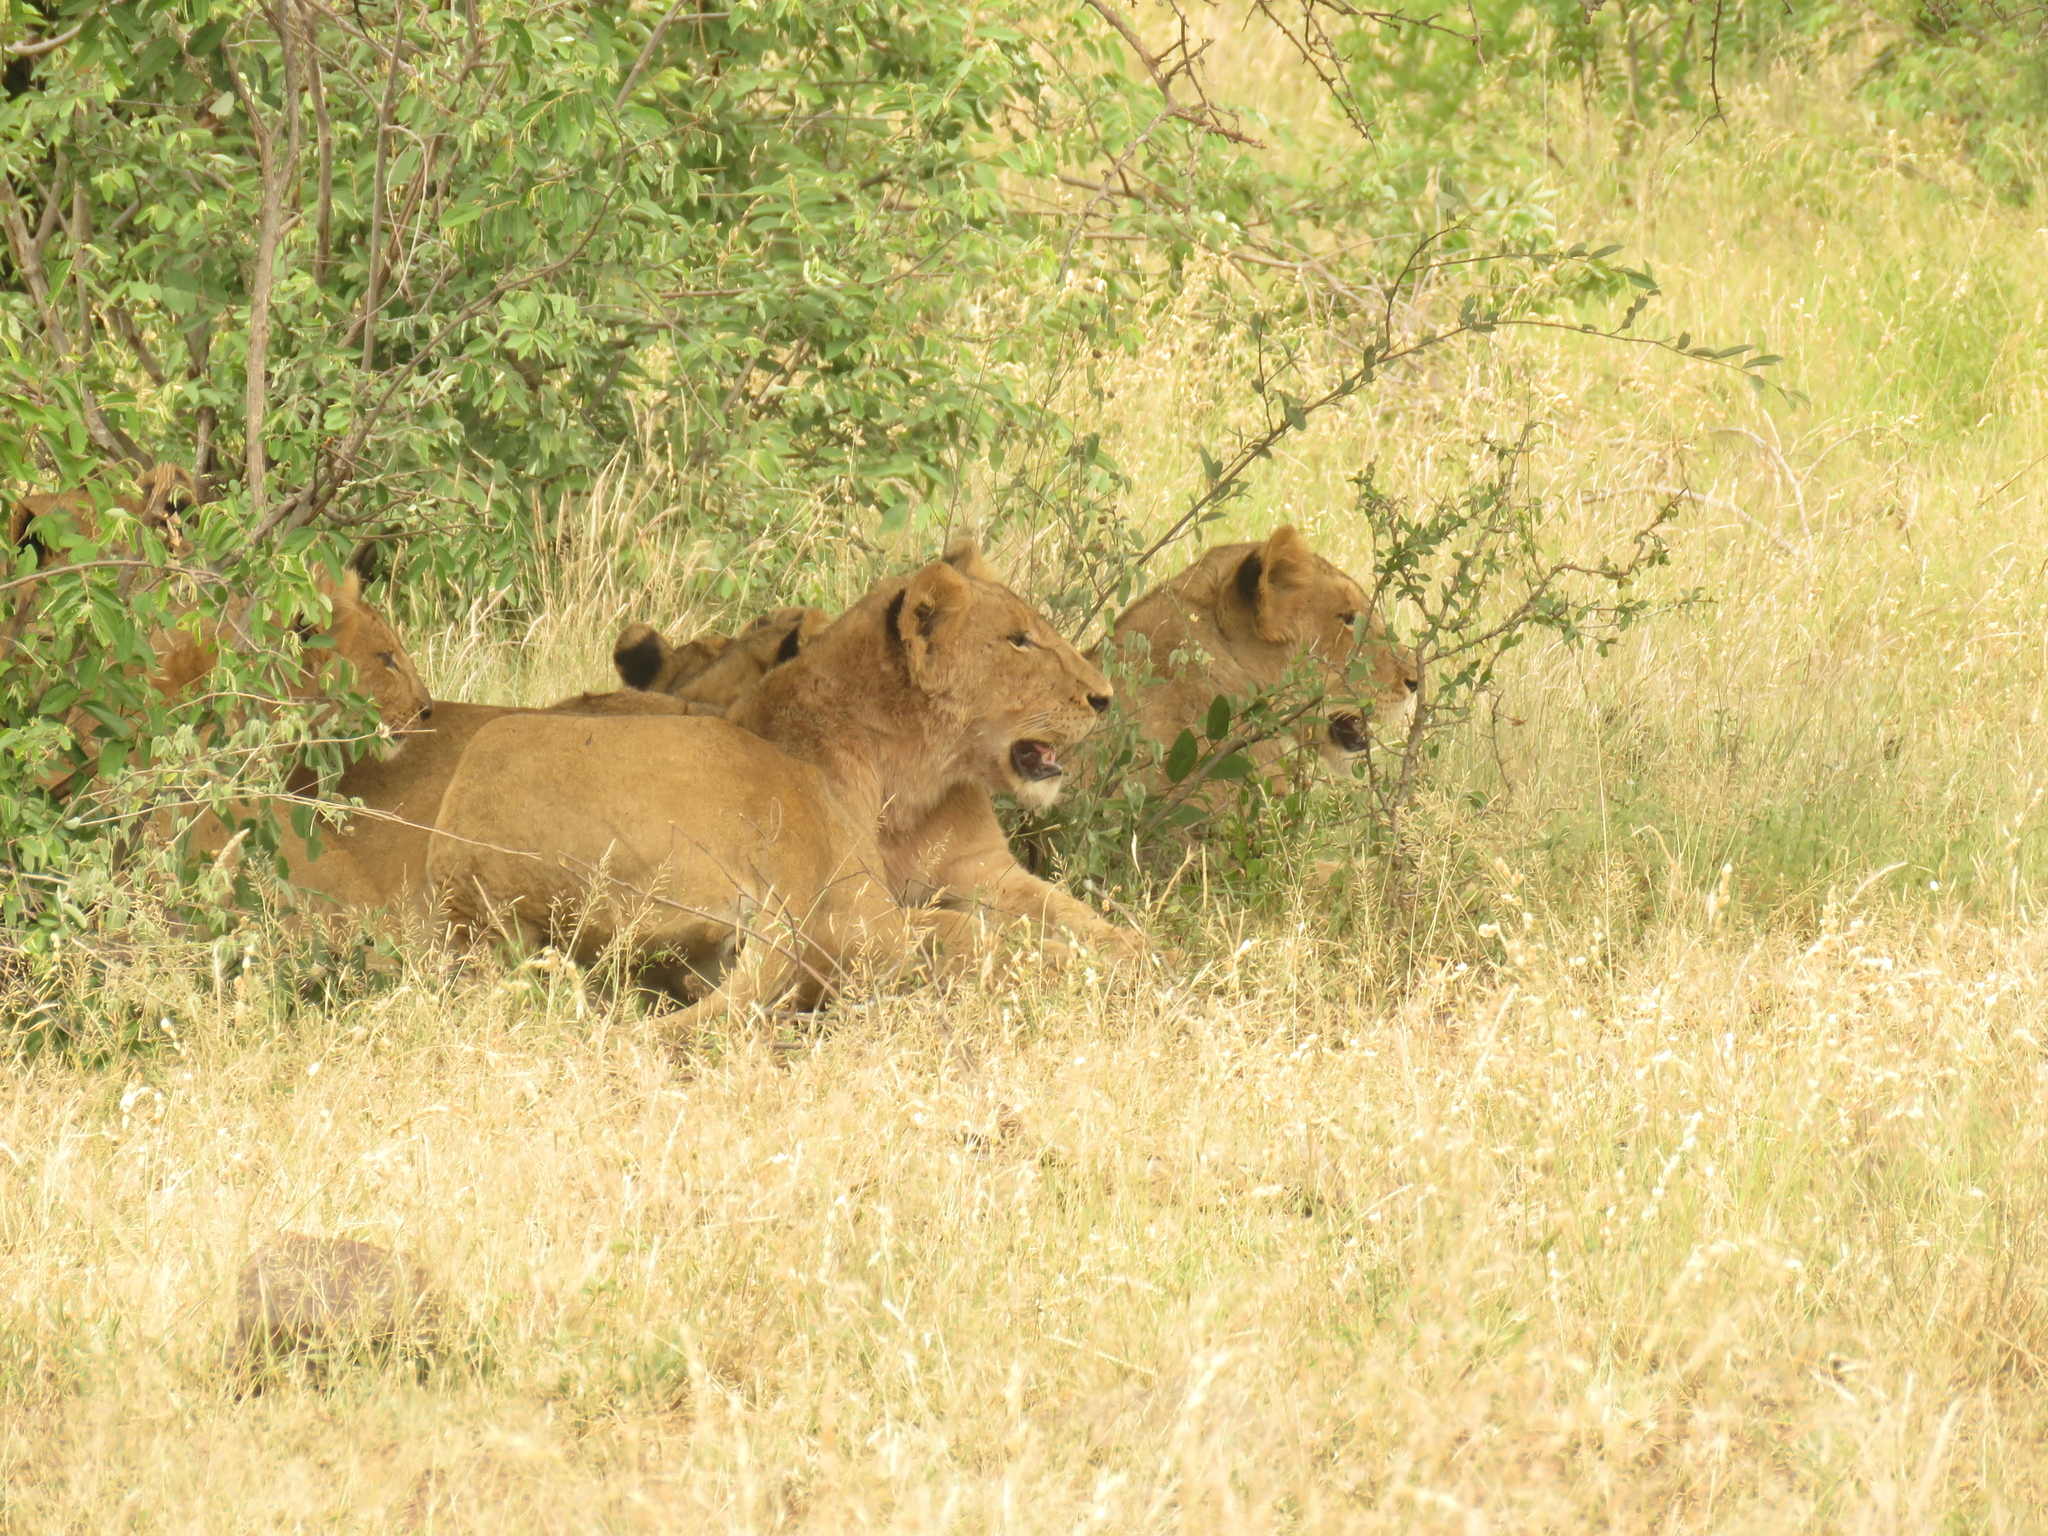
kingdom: Animalia
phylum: Chordata
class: Mammalia
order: Carnivora
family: Felidae
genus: Panthera
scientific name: Panthera leo
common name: Lion
